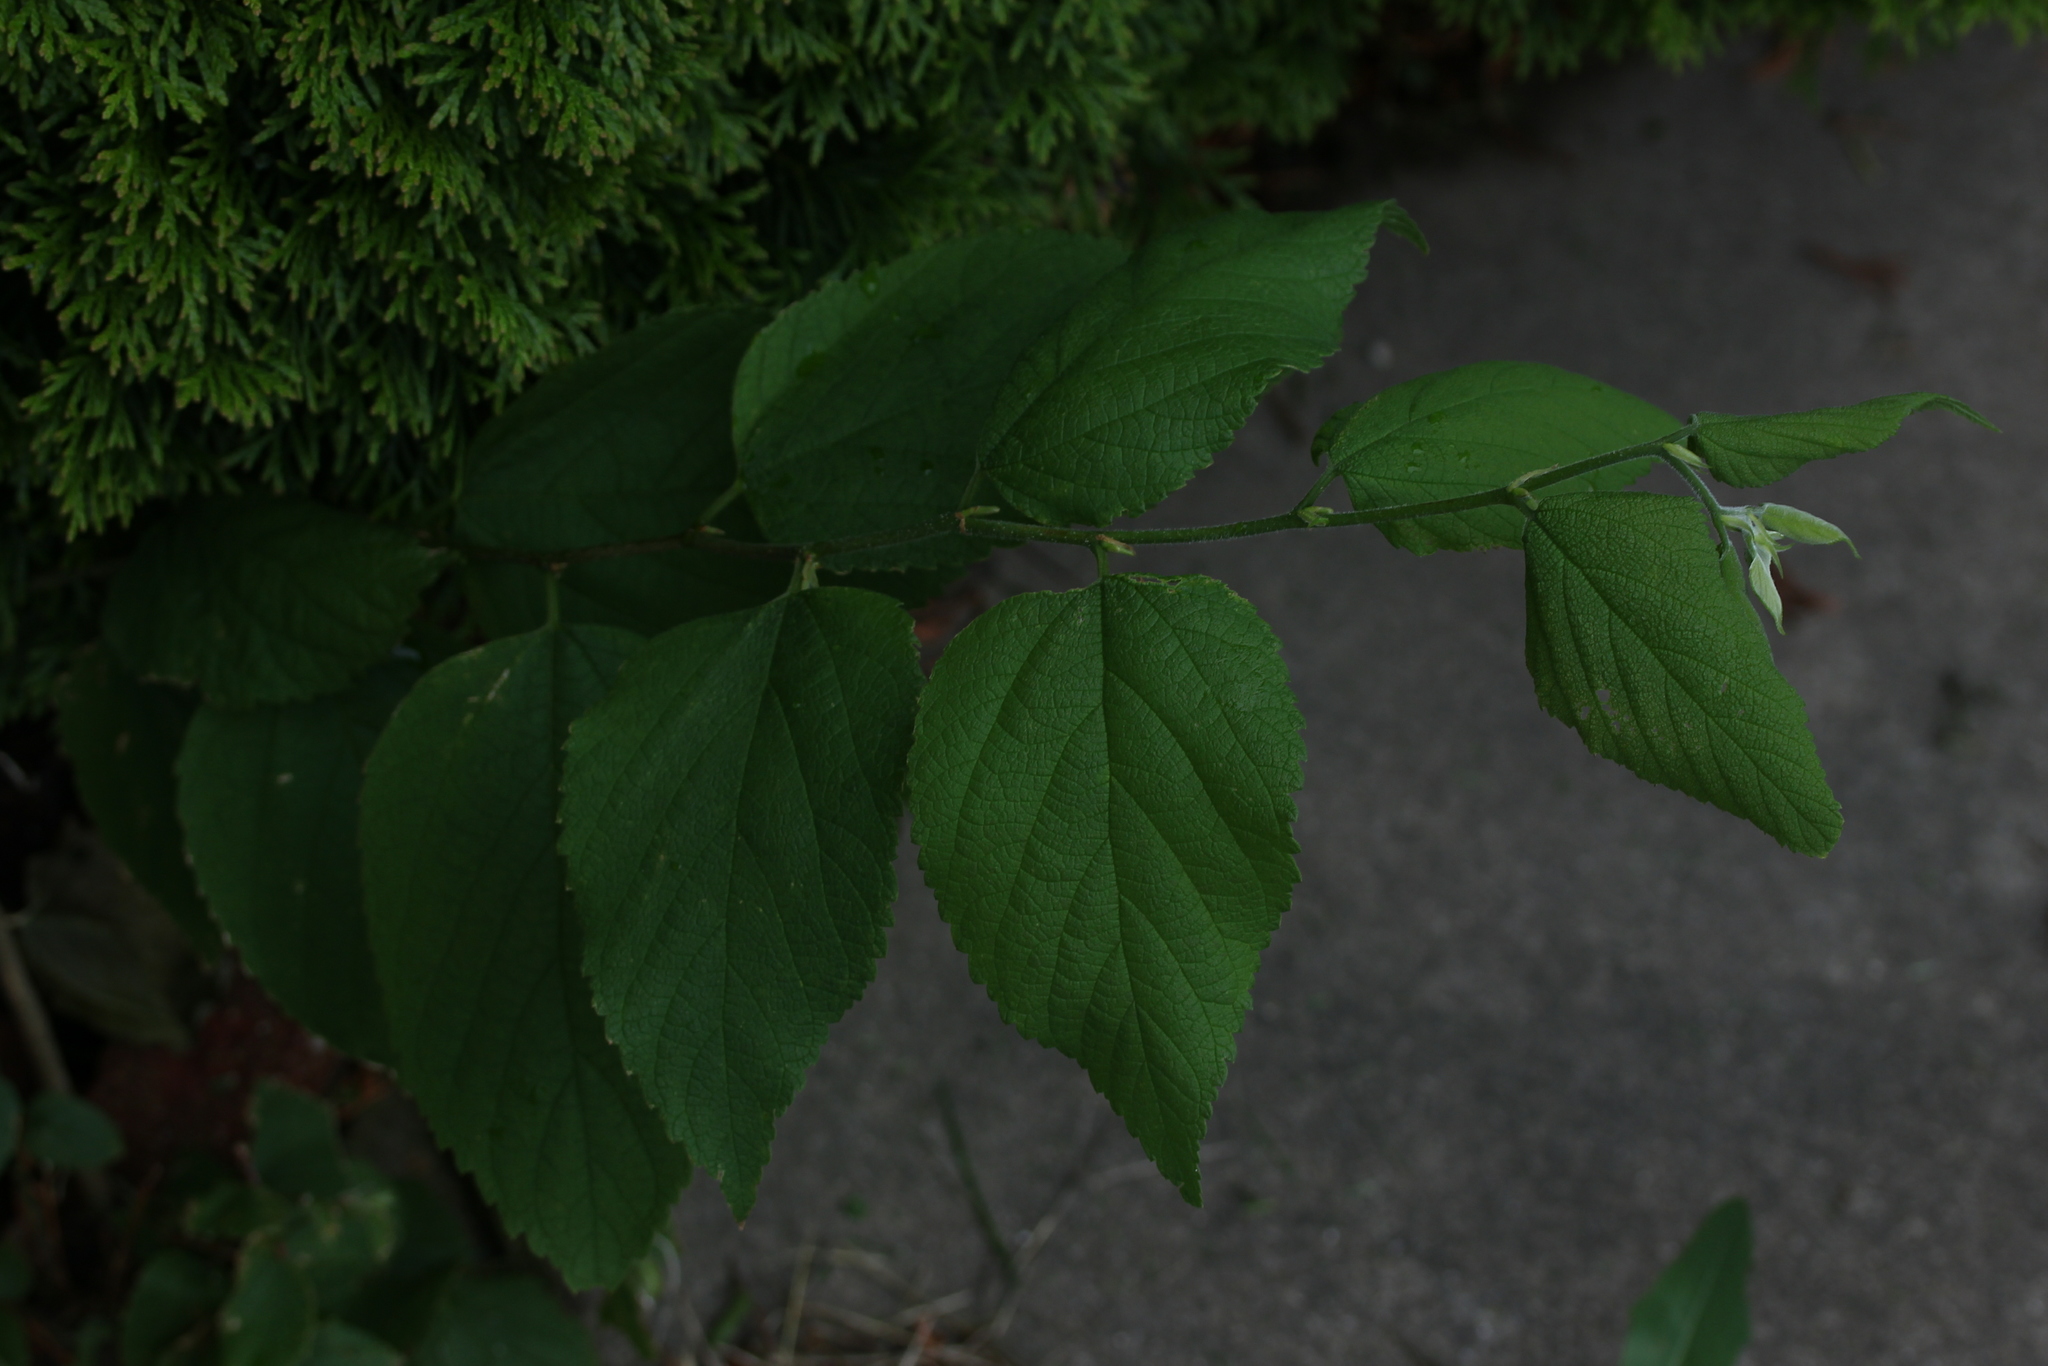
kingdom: Plantae
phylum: Tracheophyta
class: Magnoliopsida
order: Rosales
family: Cannabaceae
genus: Celtis
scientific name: Celtis occidentalis
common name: Common hackberry
